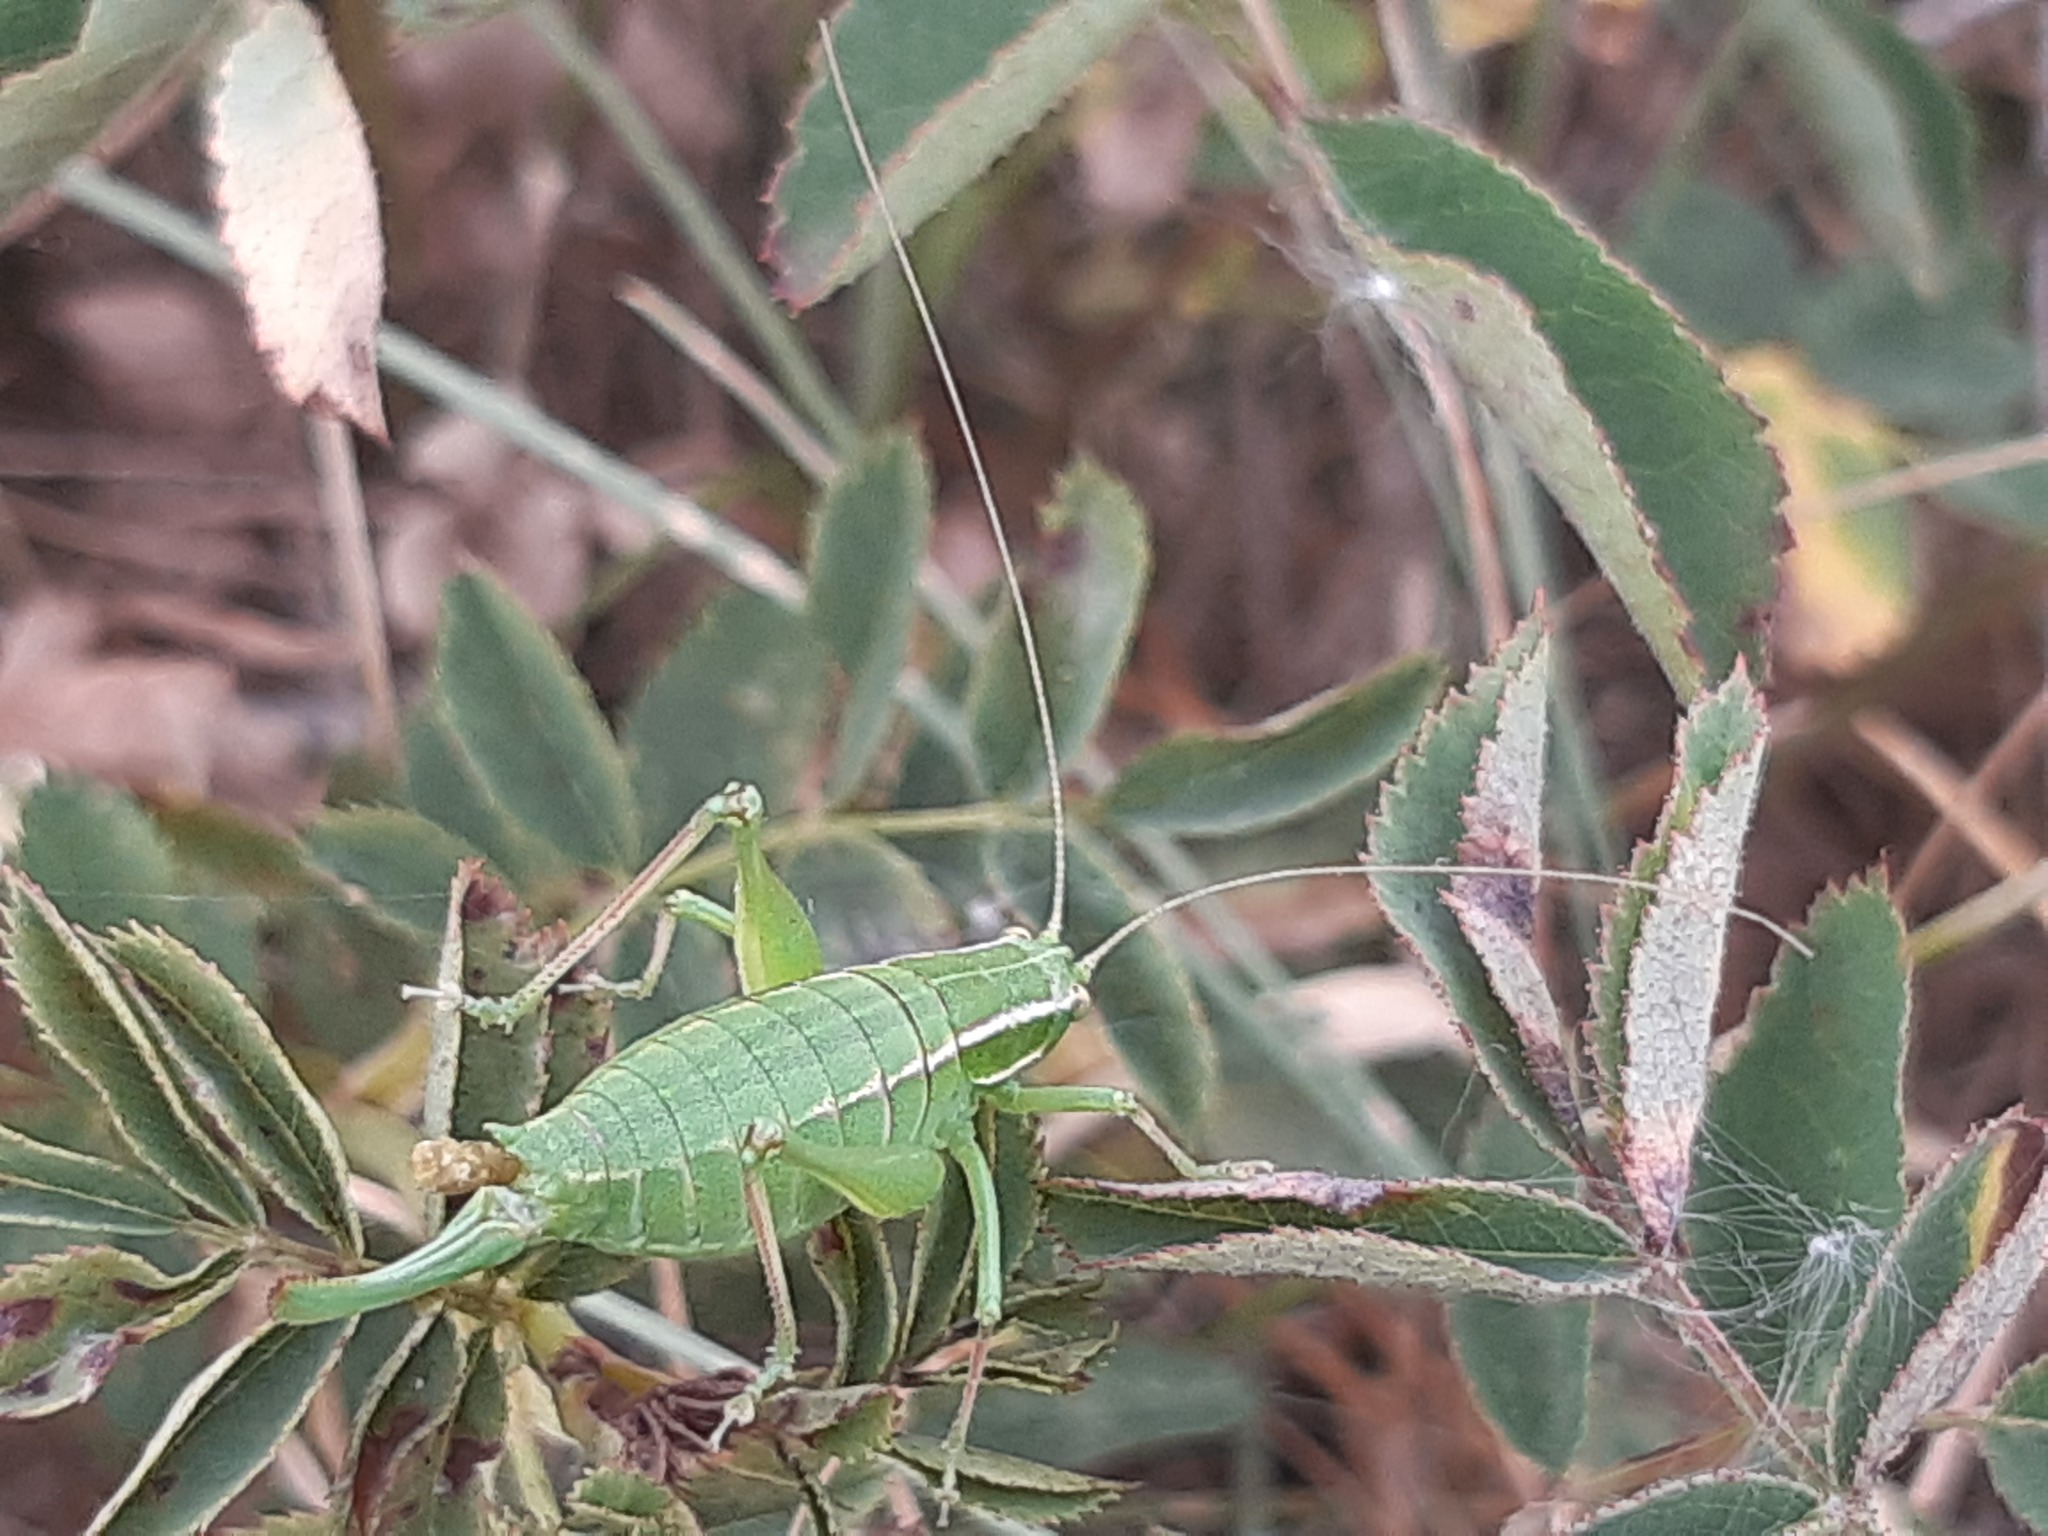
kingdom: Animalia
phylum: Arthropoda
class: Insecta
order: Orthoptera
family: Tettigoniidae
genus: Poecilimon
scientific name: Poecilimon elegans
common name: Elegant bright bush-cricket
